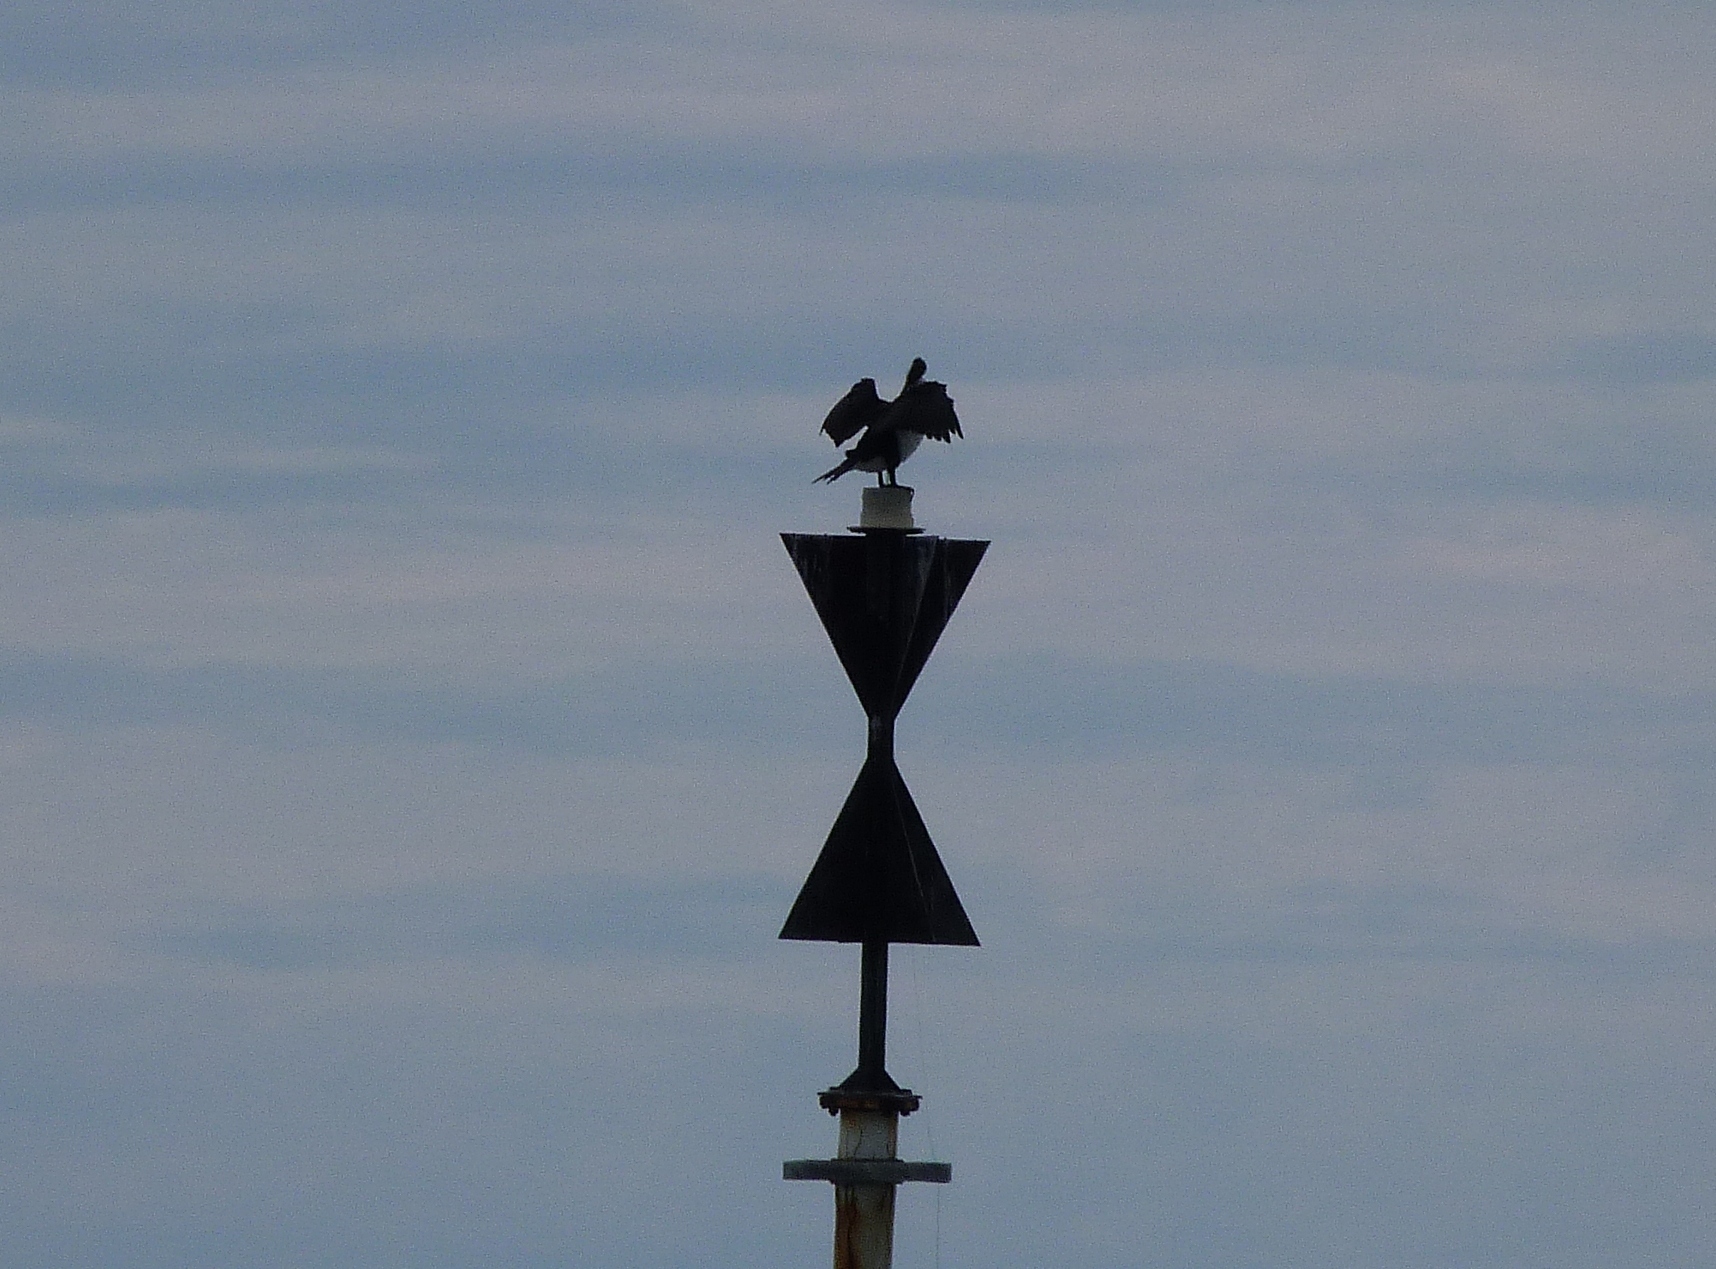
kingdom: Animalia
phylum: Chordata
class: Aves
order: Suliformes
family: Phalacrocoracidae
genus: Phalacrocorax
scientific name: Phalacrocorax varius
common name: Pied cormorant
